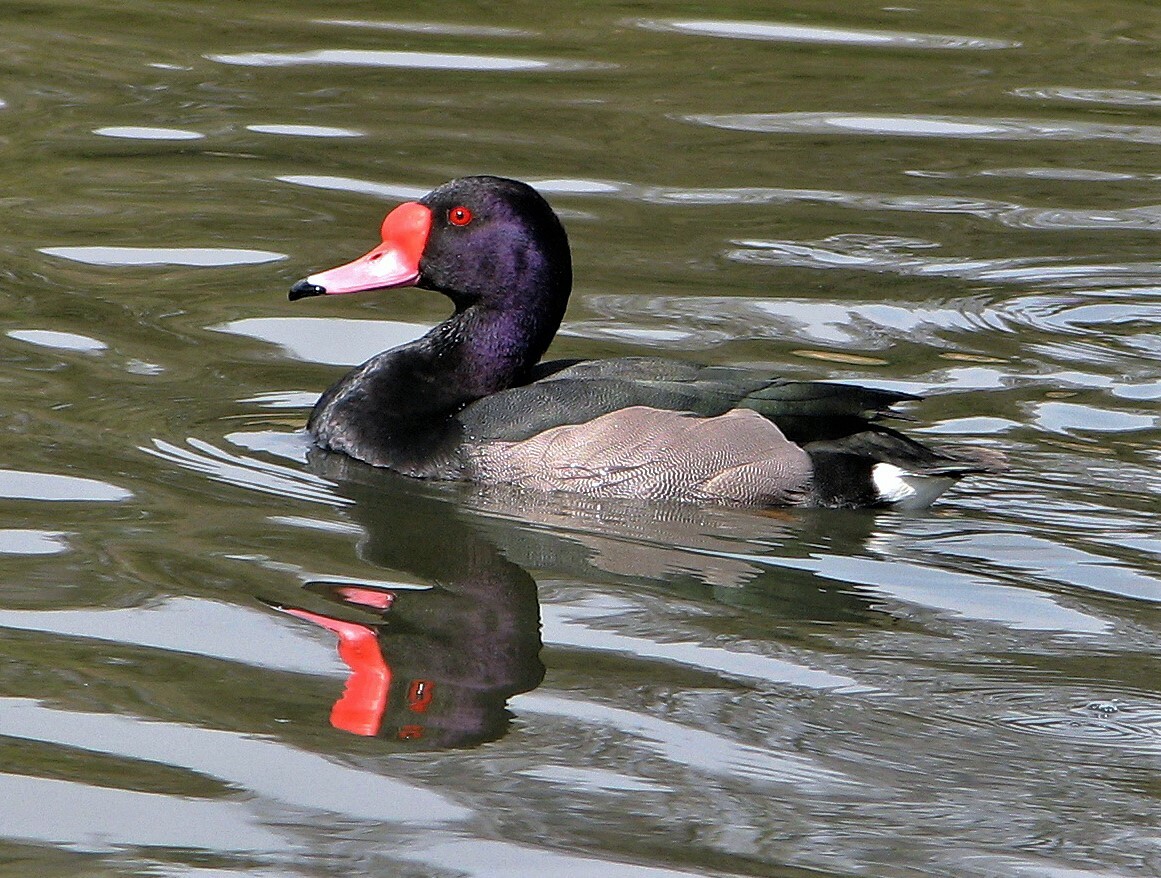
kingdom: Animalia
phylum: Chordata
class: Aves
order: Anseriformes
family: Anatidae
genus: Netta
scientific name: Netta peposaca
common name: Rosy-billed pochard
